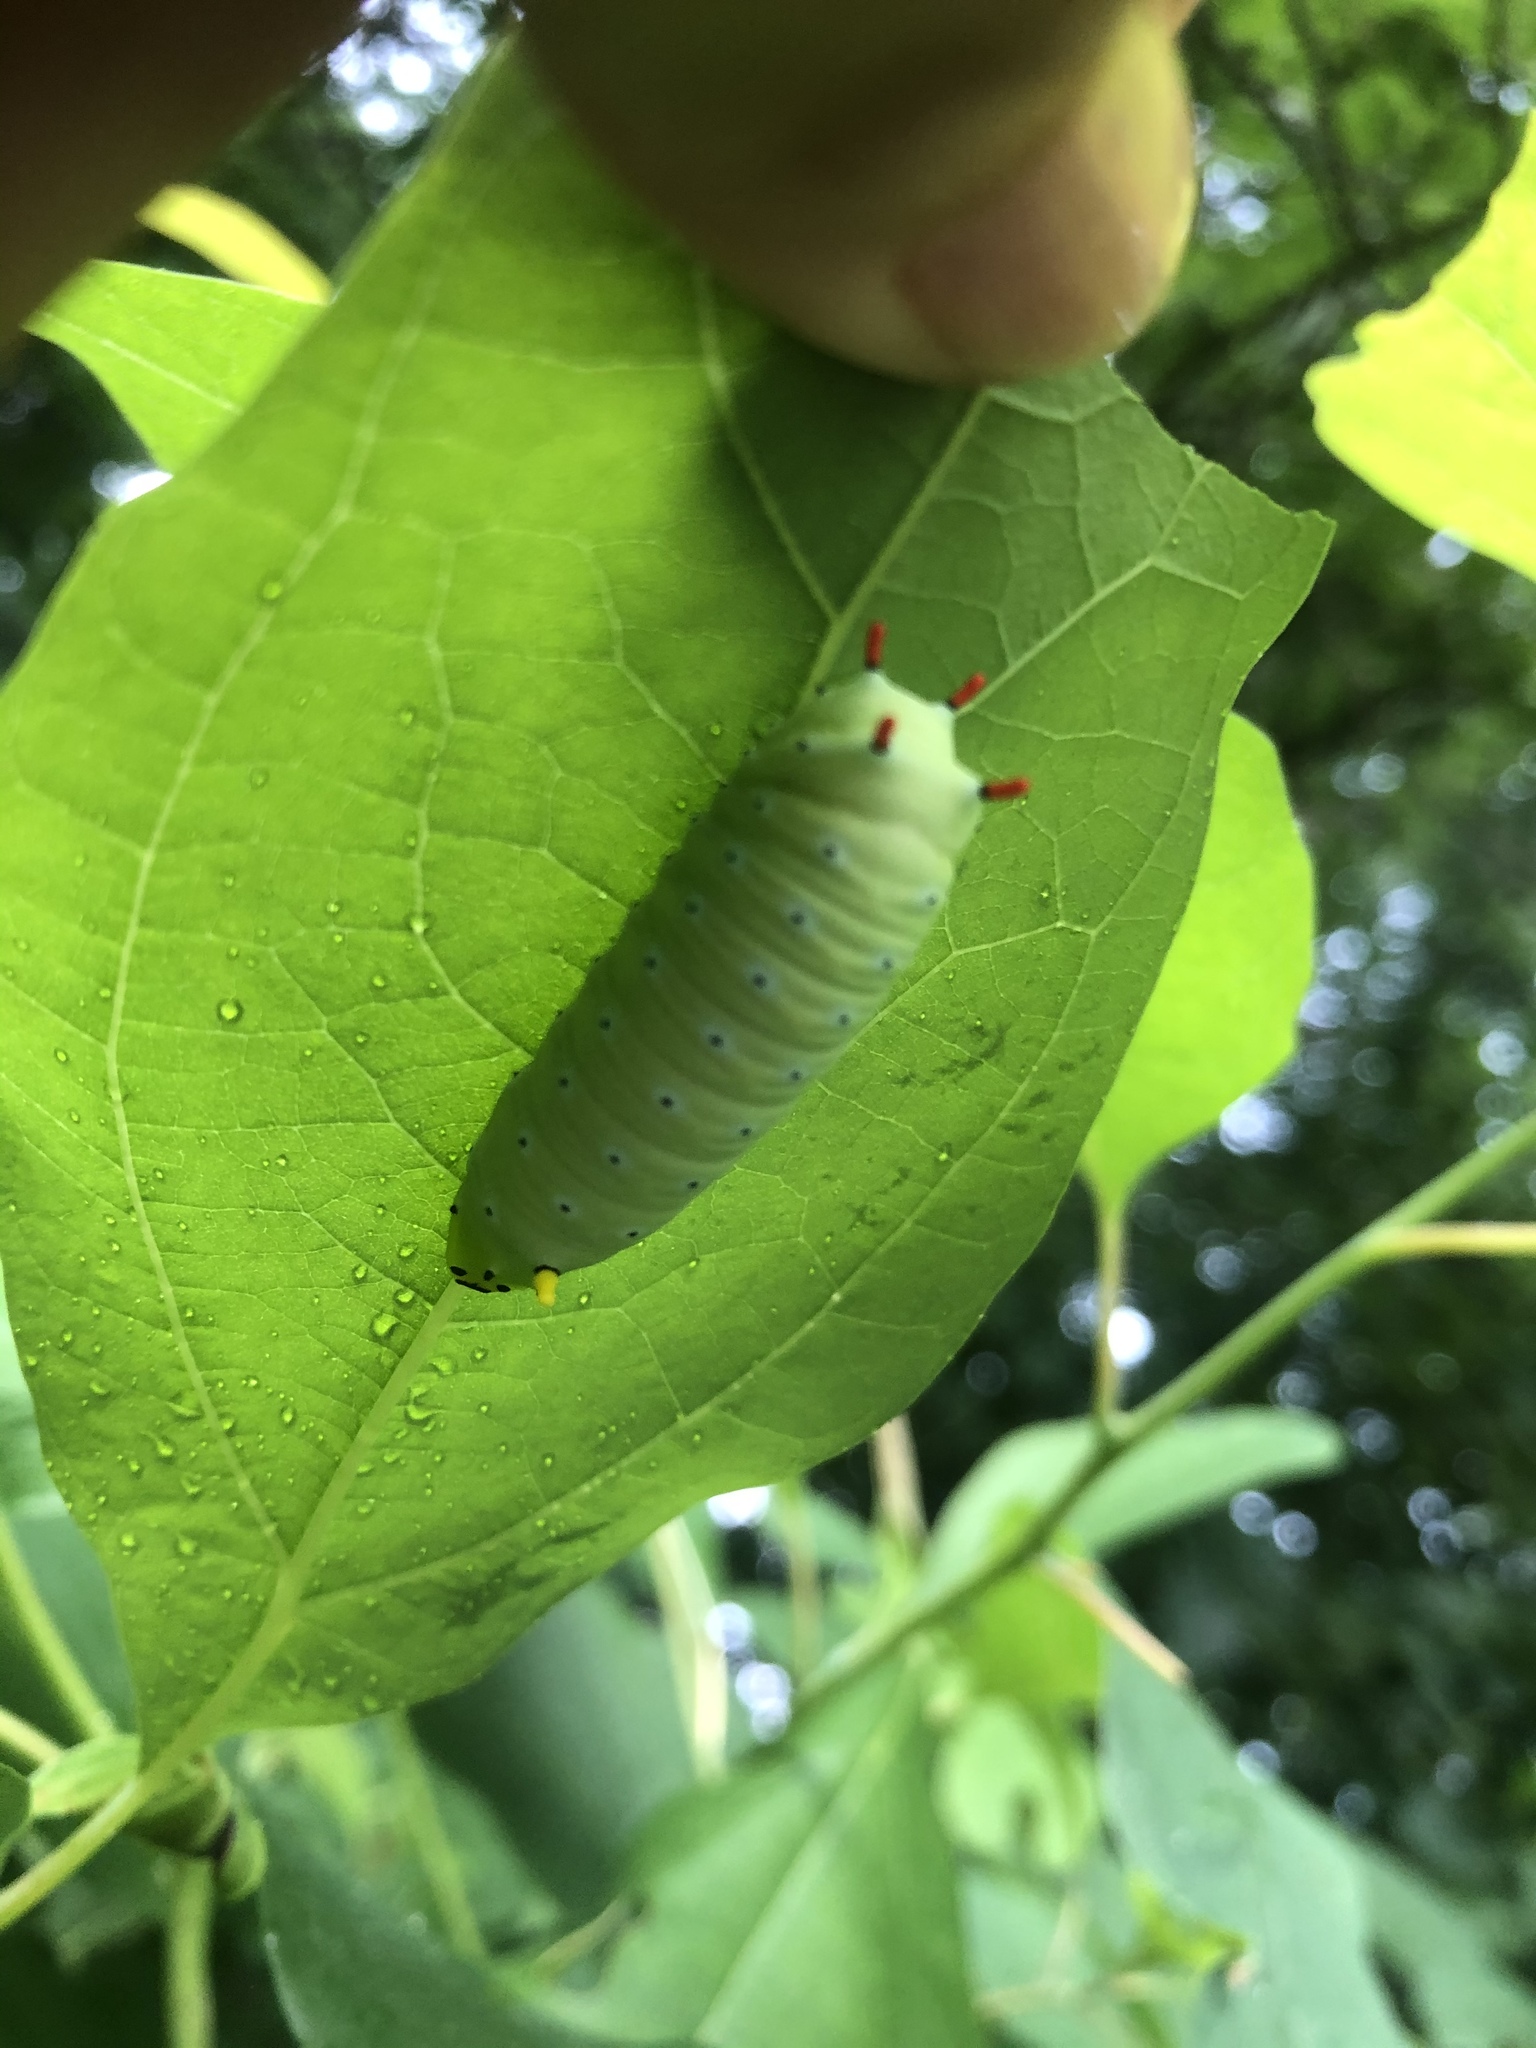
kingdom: Animalia
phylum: Arthropoda
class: Insecta
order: Lepidoptera
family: Saturniidae
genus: Callosamia
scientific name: Callosamia promethea
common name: Promethea silkmoth
